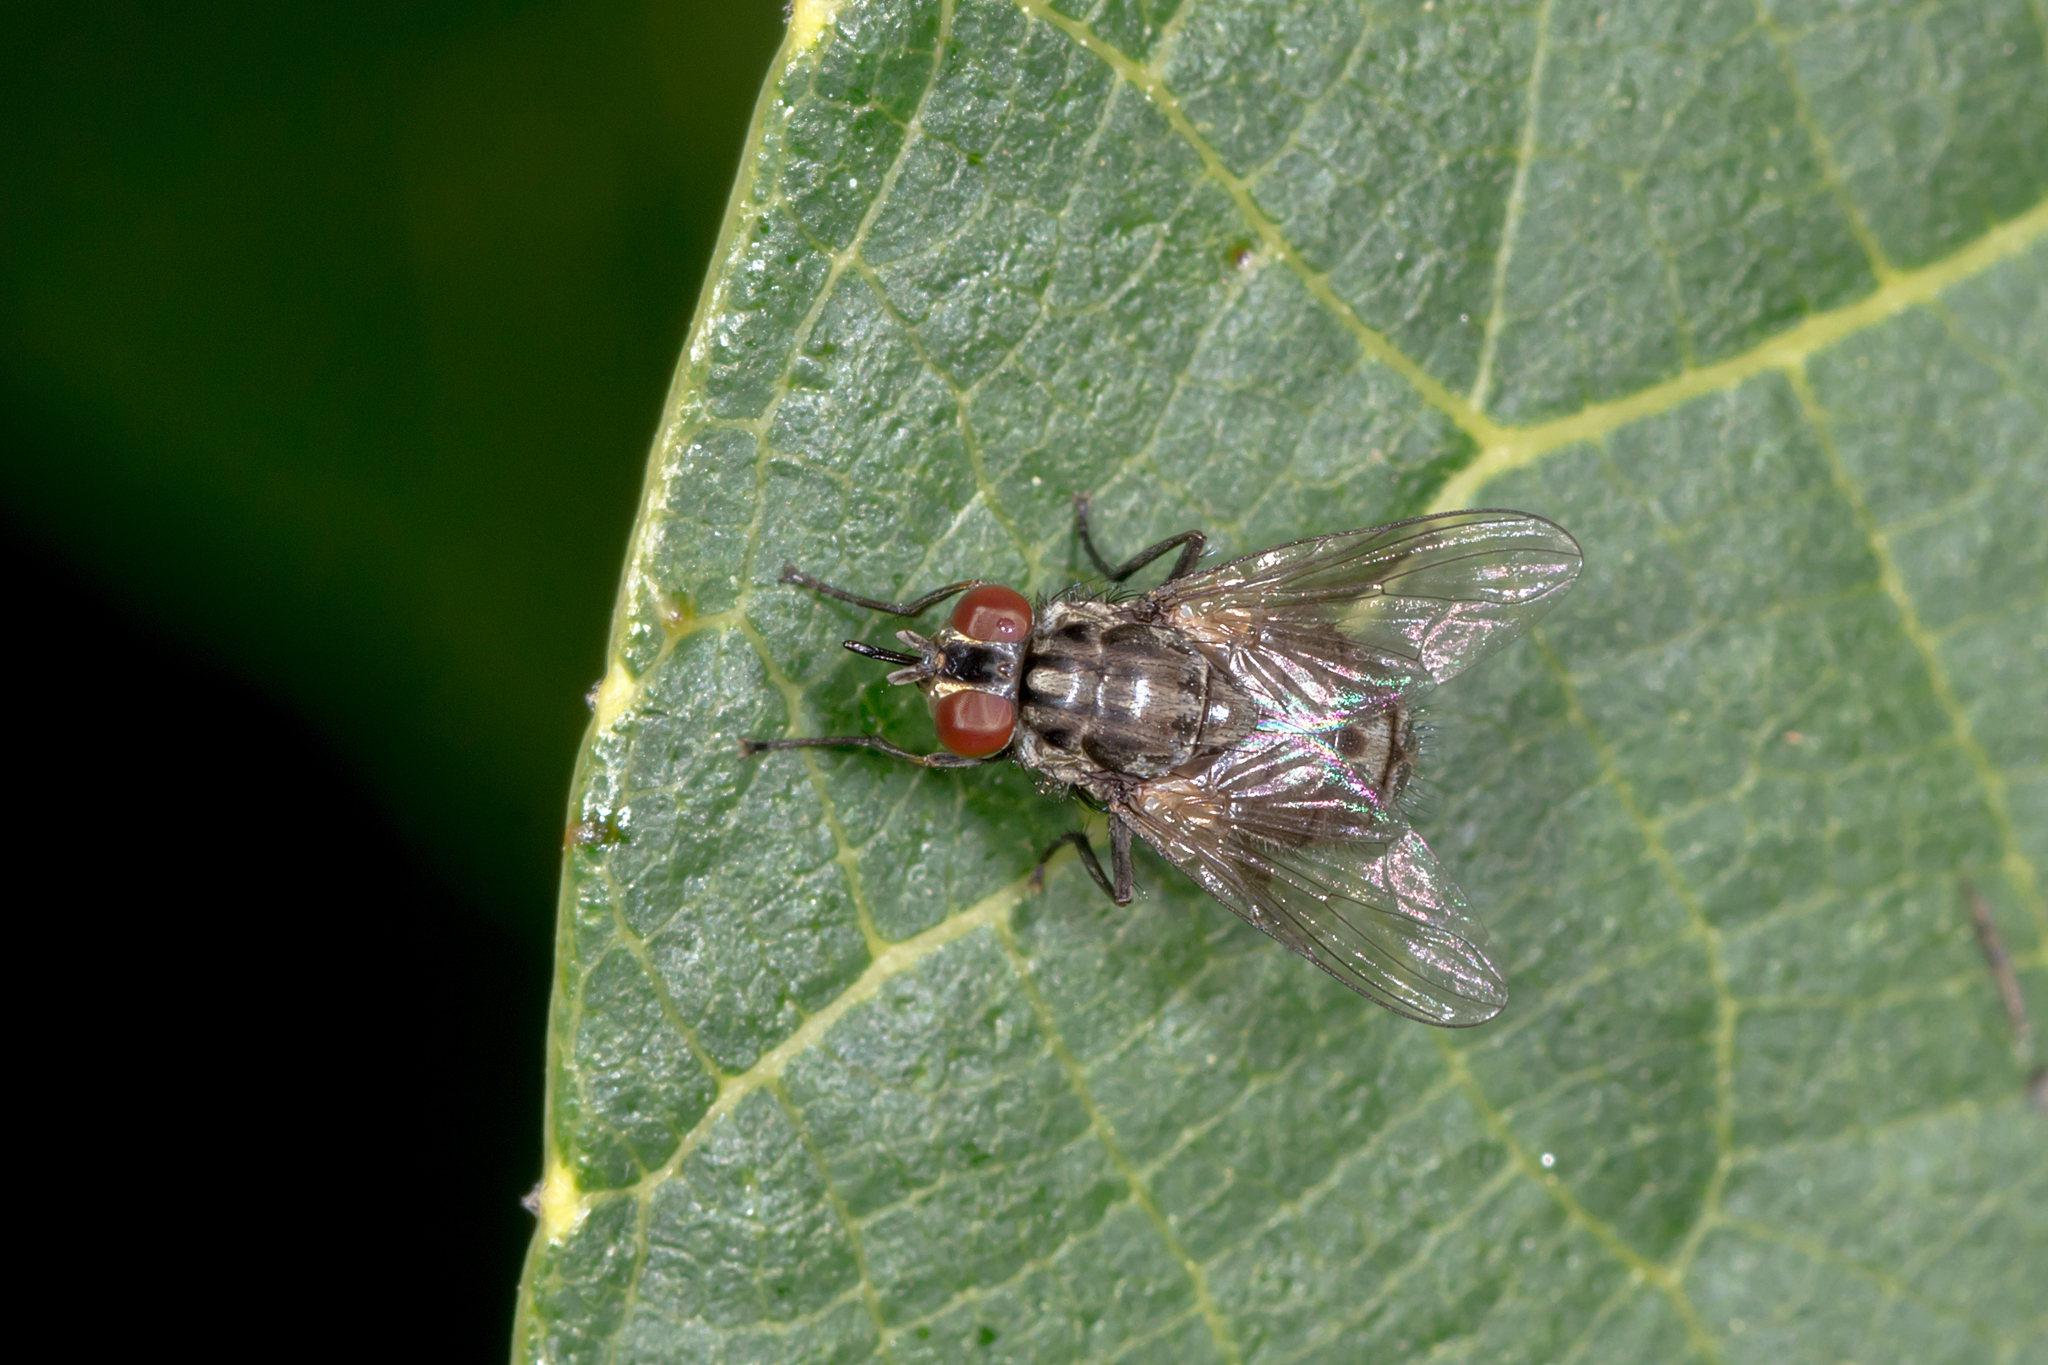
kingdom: Animalia
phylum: Arthropoda
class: Insecta
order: Diptera
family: Muscidae
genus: Stomoxys
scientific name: Stomoxys calcitrans
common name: Stable fly
